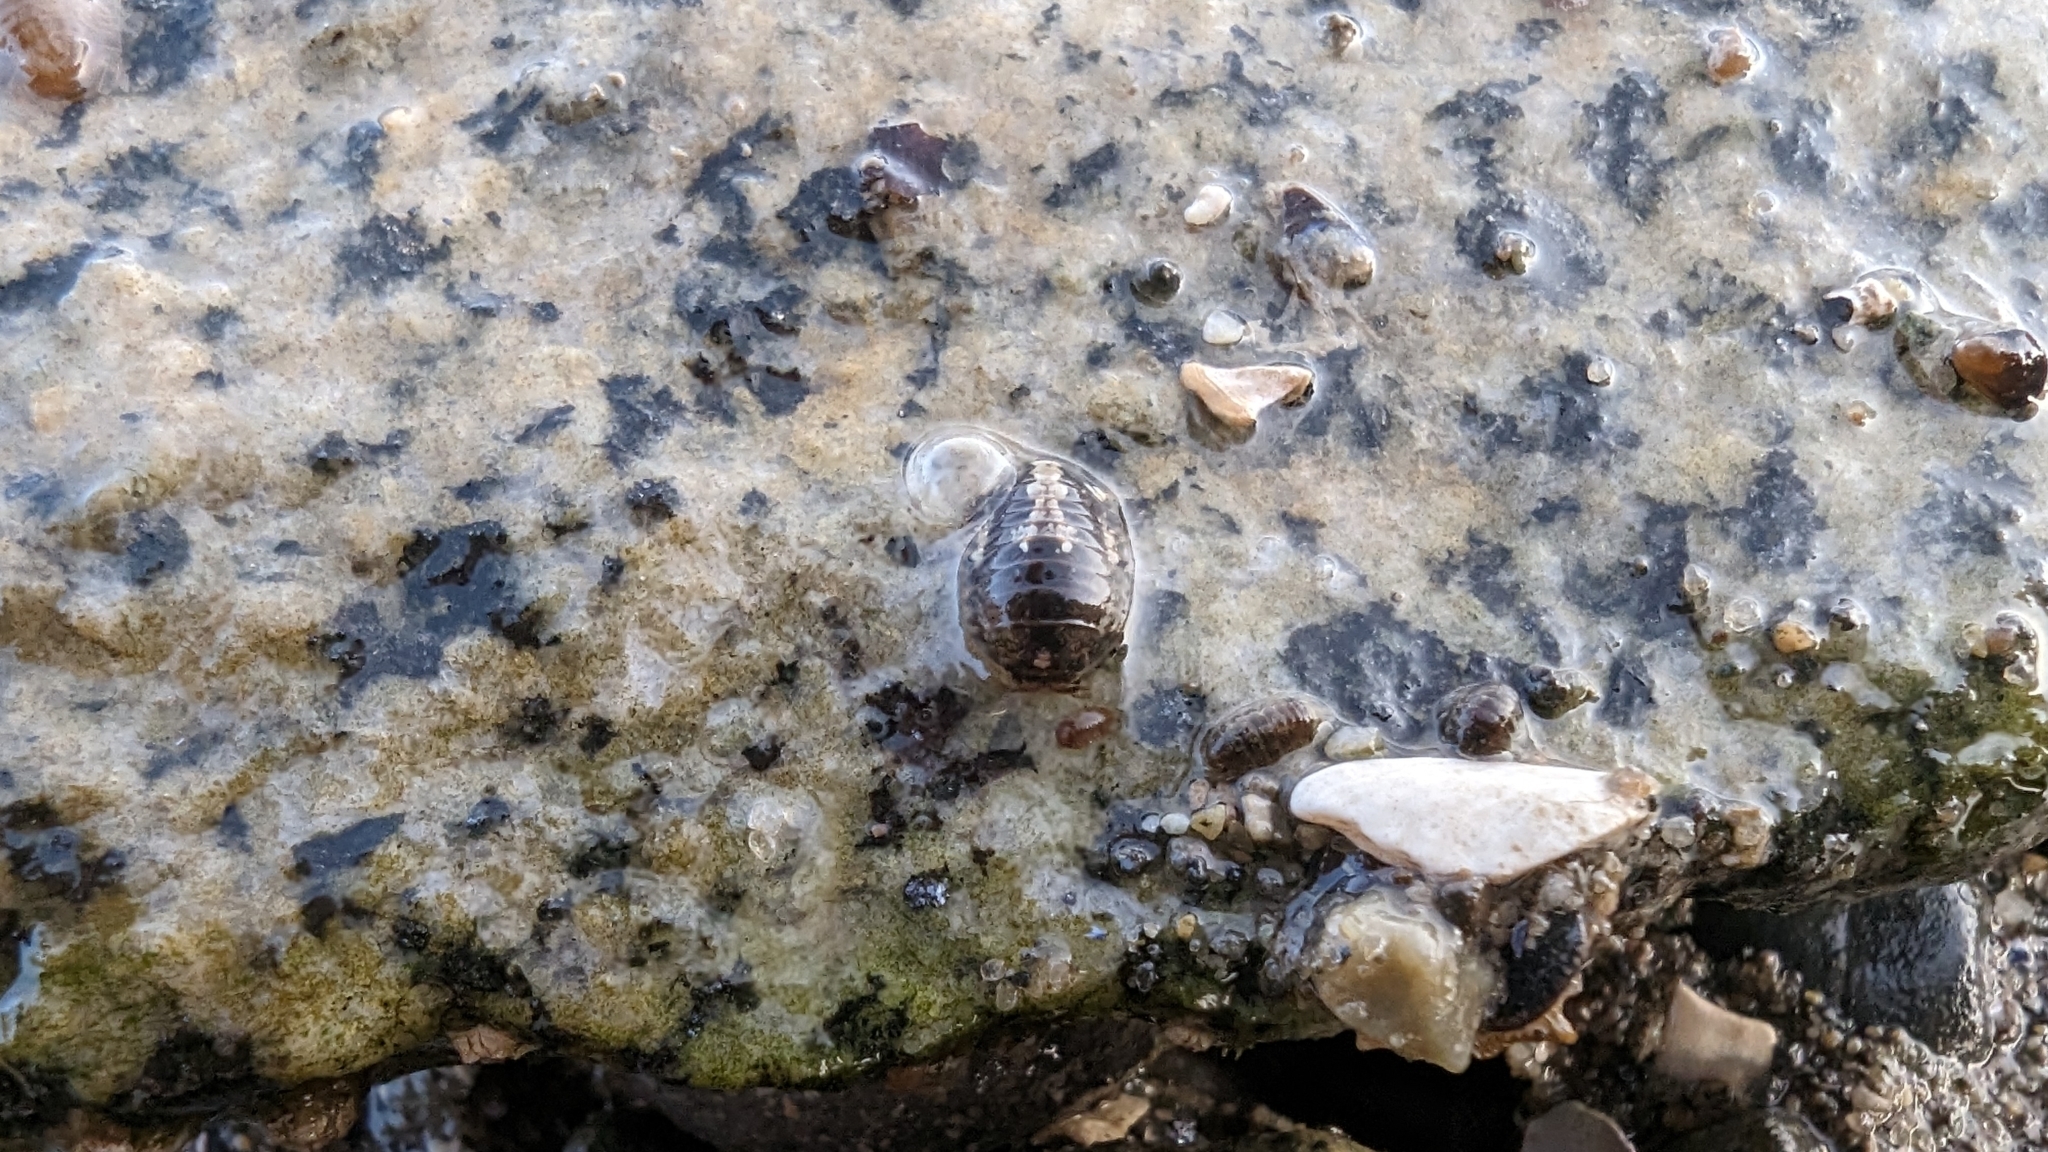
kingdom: Animalia
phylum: Arthropoda
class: Malacostraca
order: Isopoda
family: Sphaeromatidae
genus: Gnorimosphaeroma
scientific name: Gnorimosphaeroma oregonense
